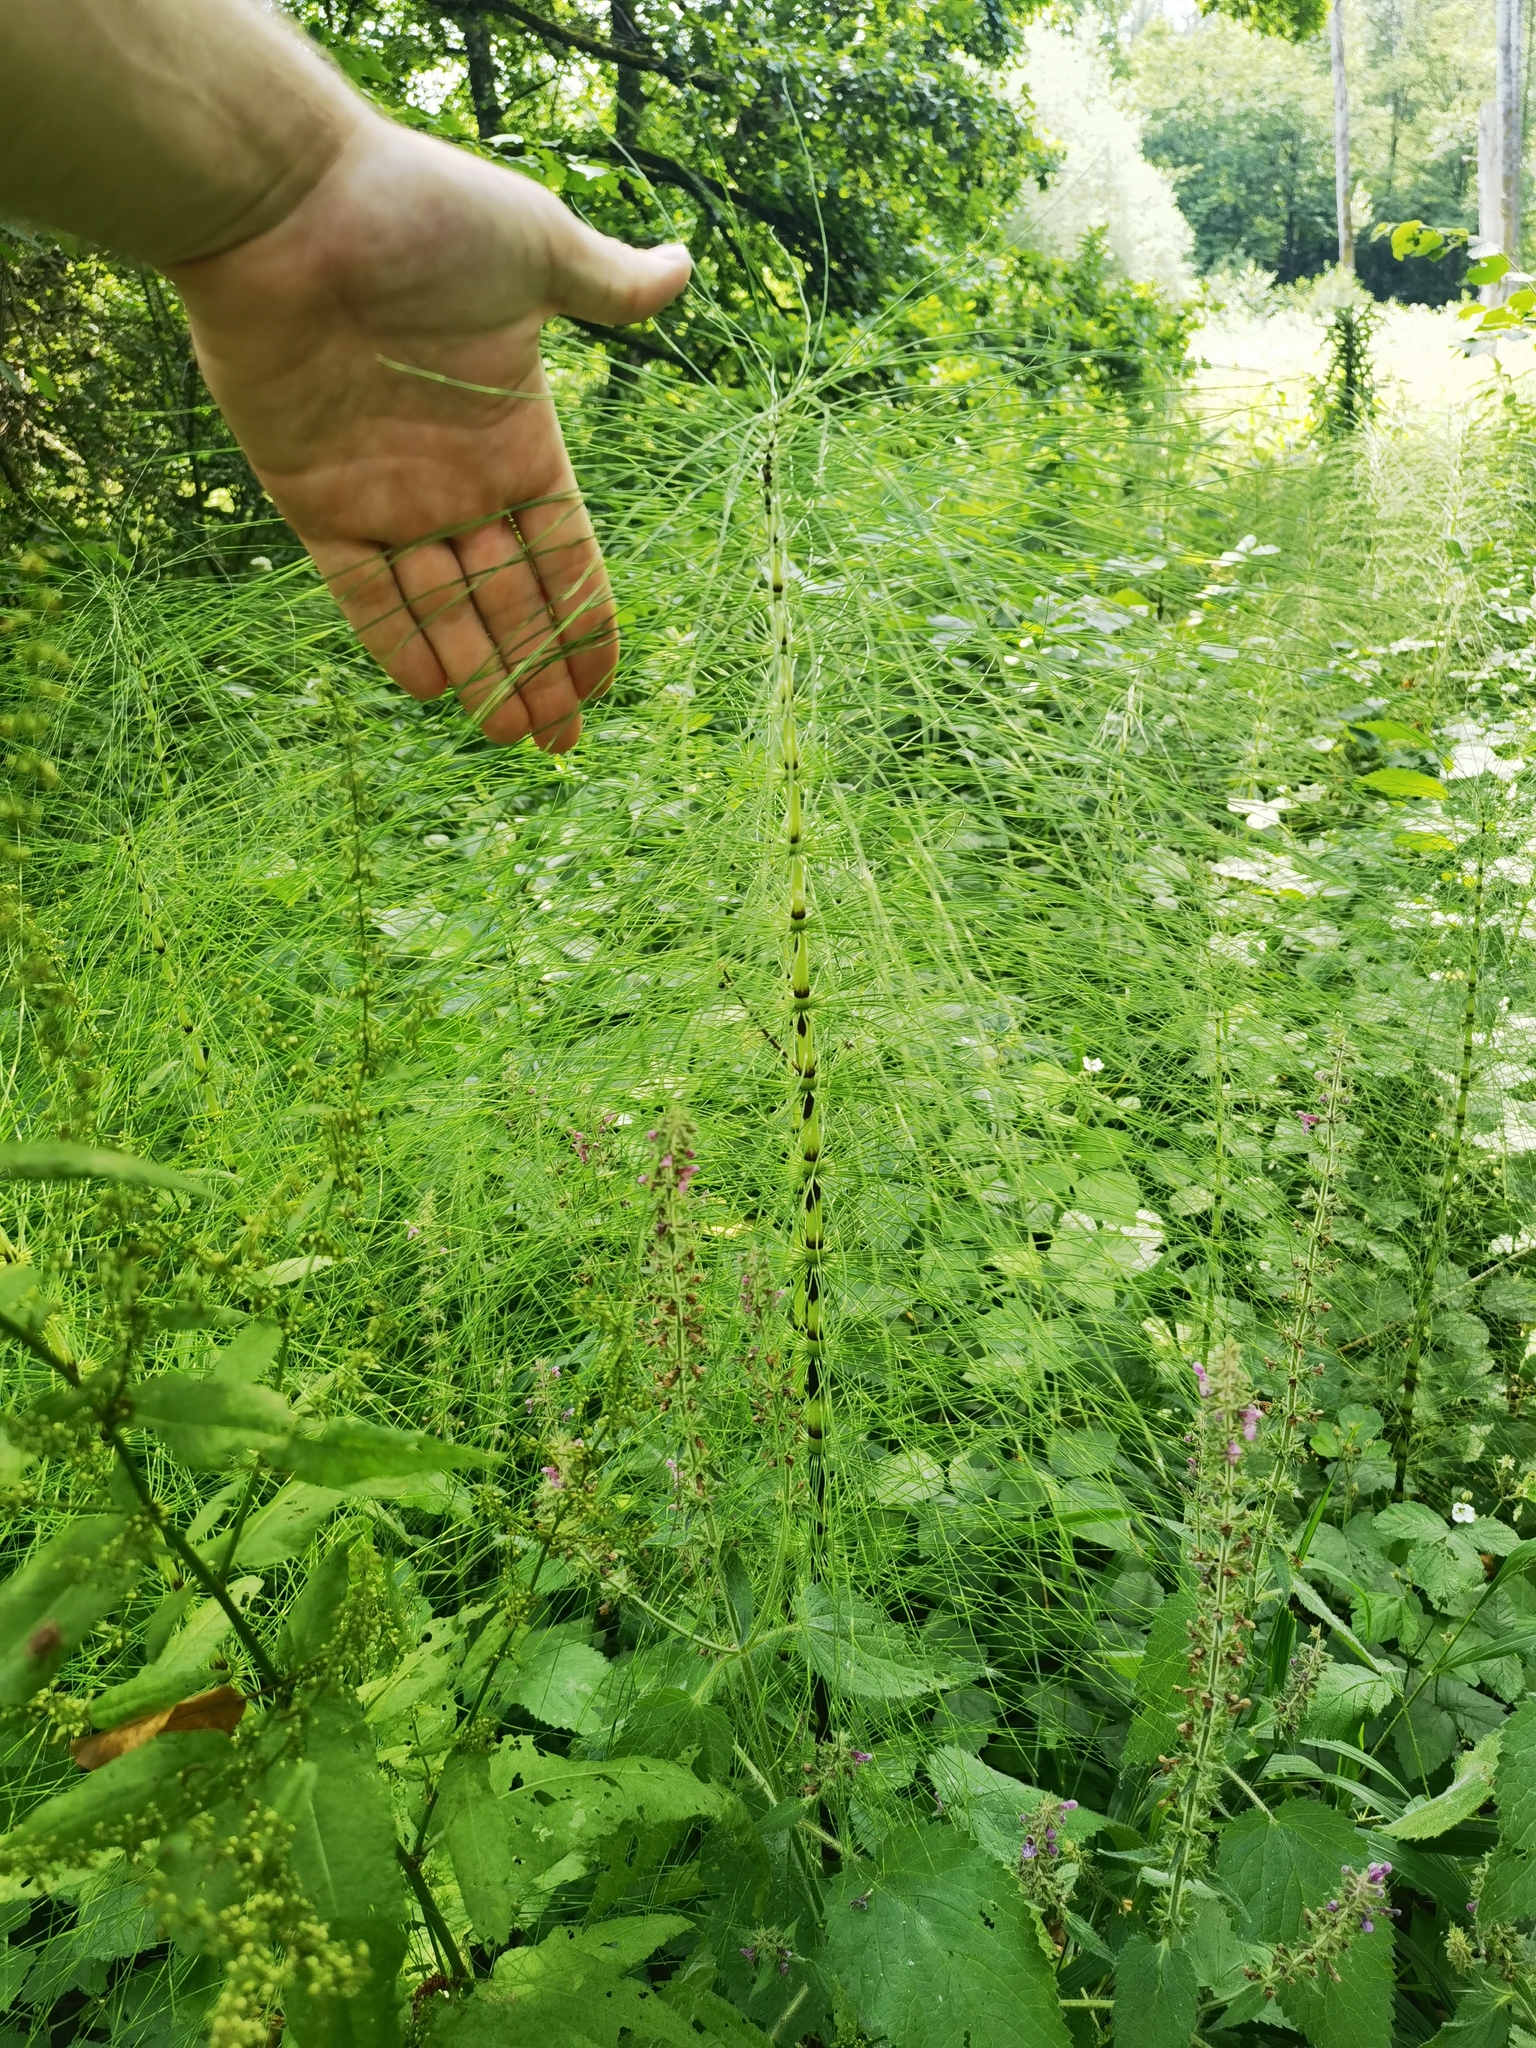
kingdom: Plantae
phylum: Tracheophyta
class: Polypodiopsida
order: Equisetales
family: Equisetaceae
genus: Equisetum
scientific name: Equisetum telmateia
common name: Great horsetail
